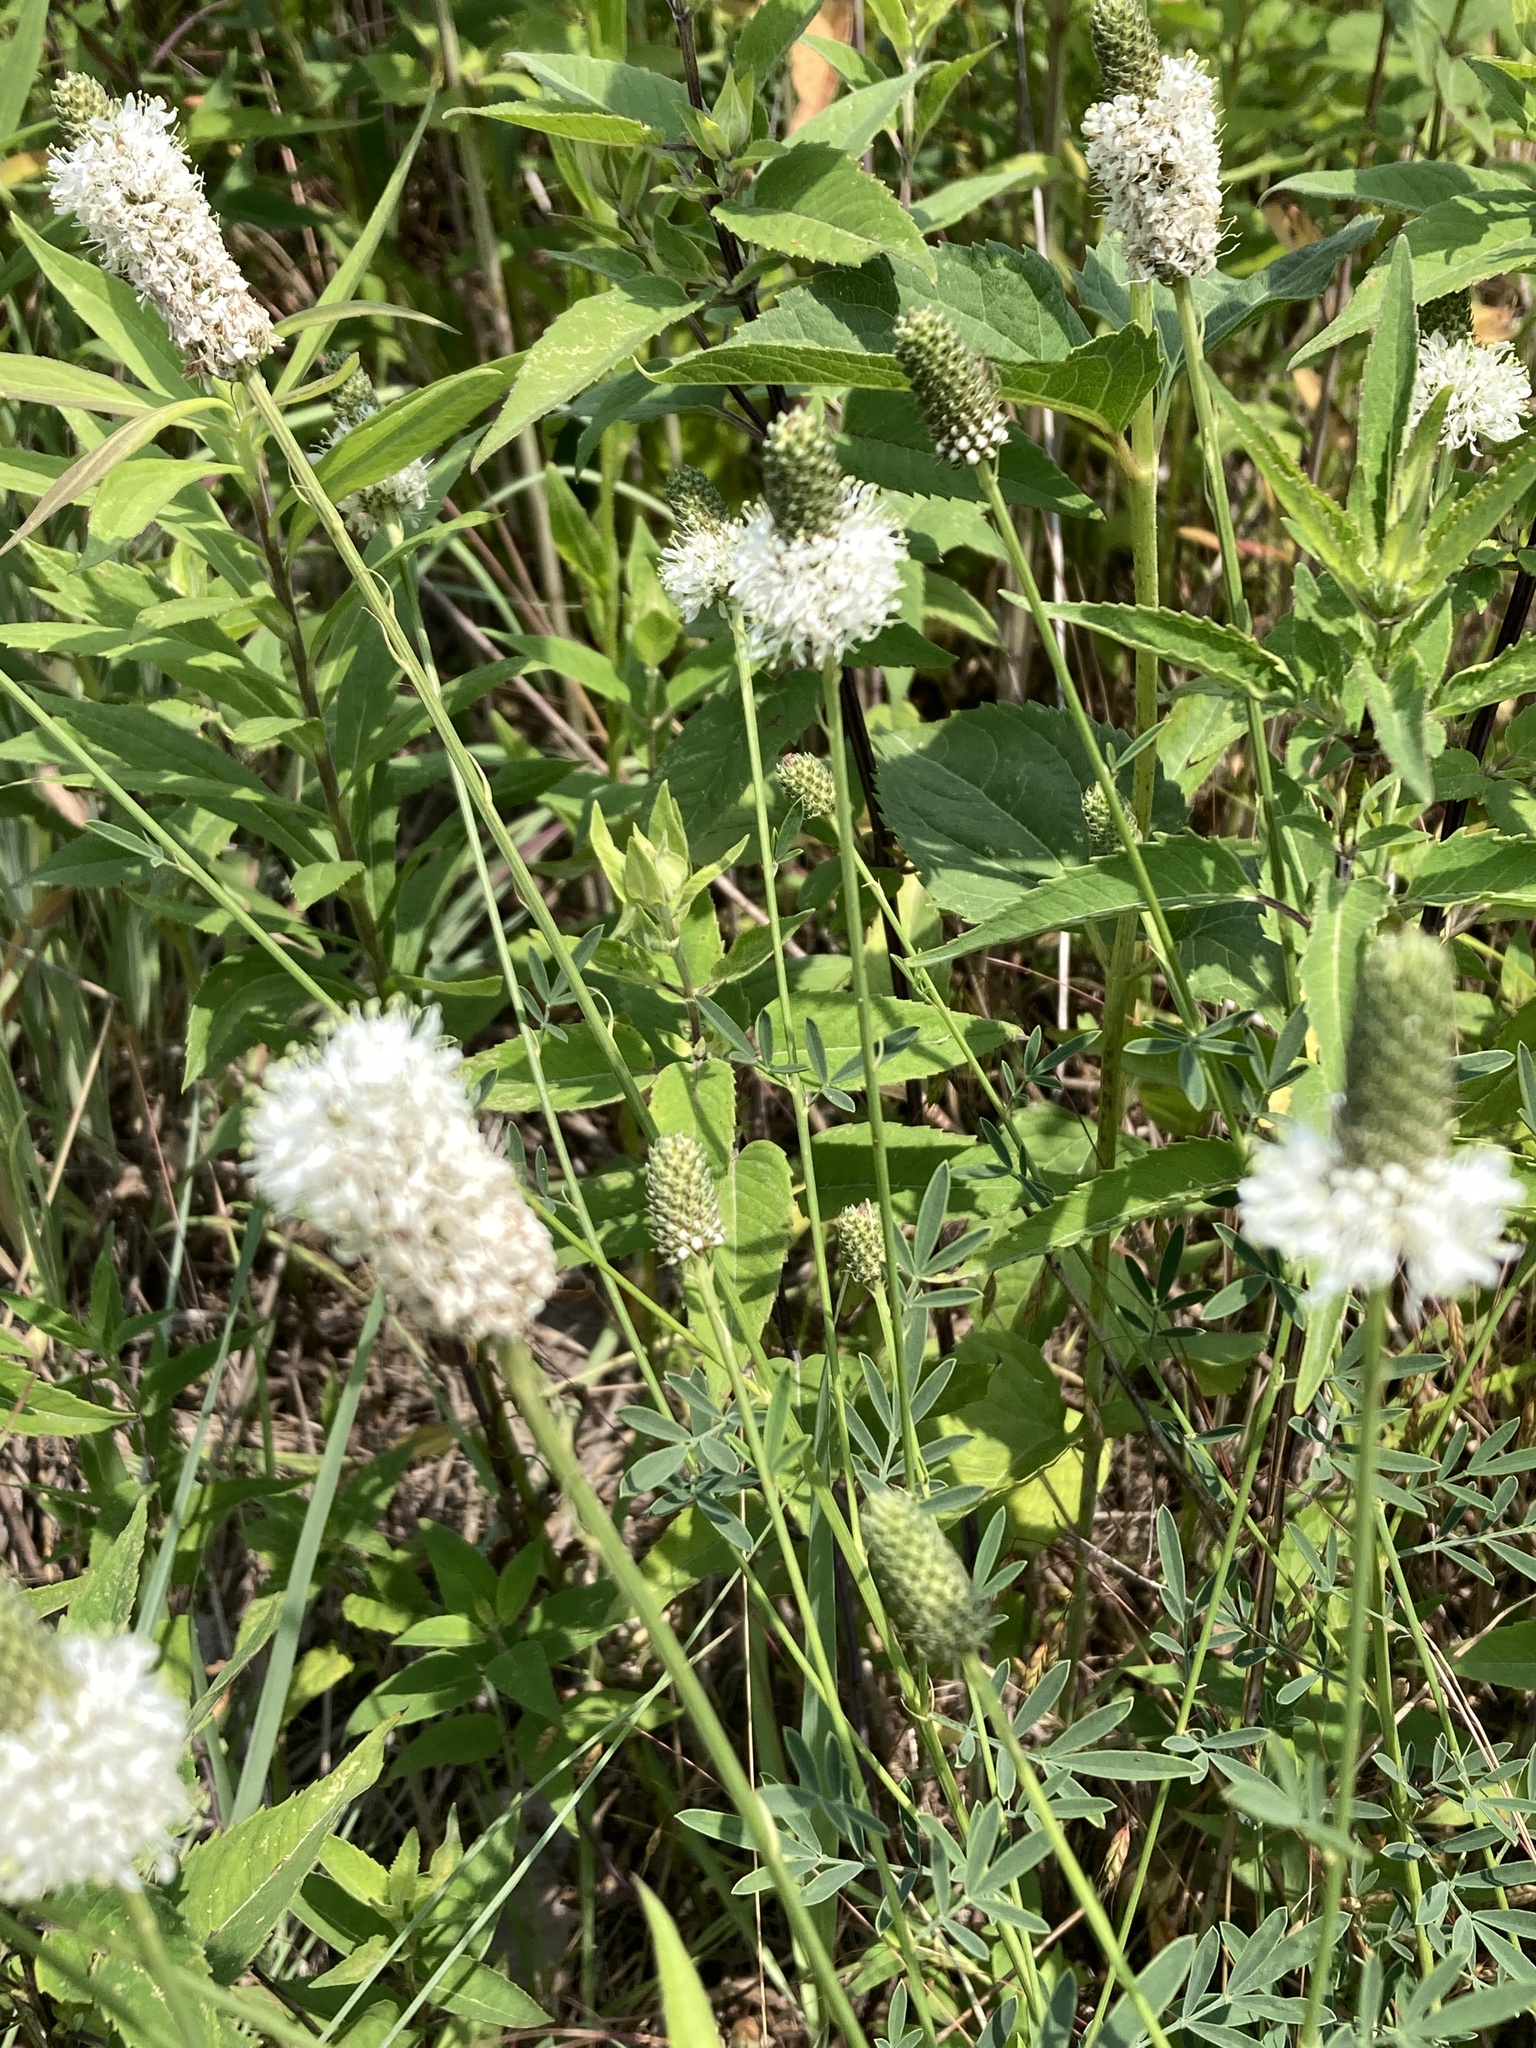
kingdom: Plantae
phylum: Tracheophyta
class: Magnoliopsida
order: Fabales
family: Fabaceae
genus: Dalea
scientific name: Dalea candida
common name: White prairie-clover
